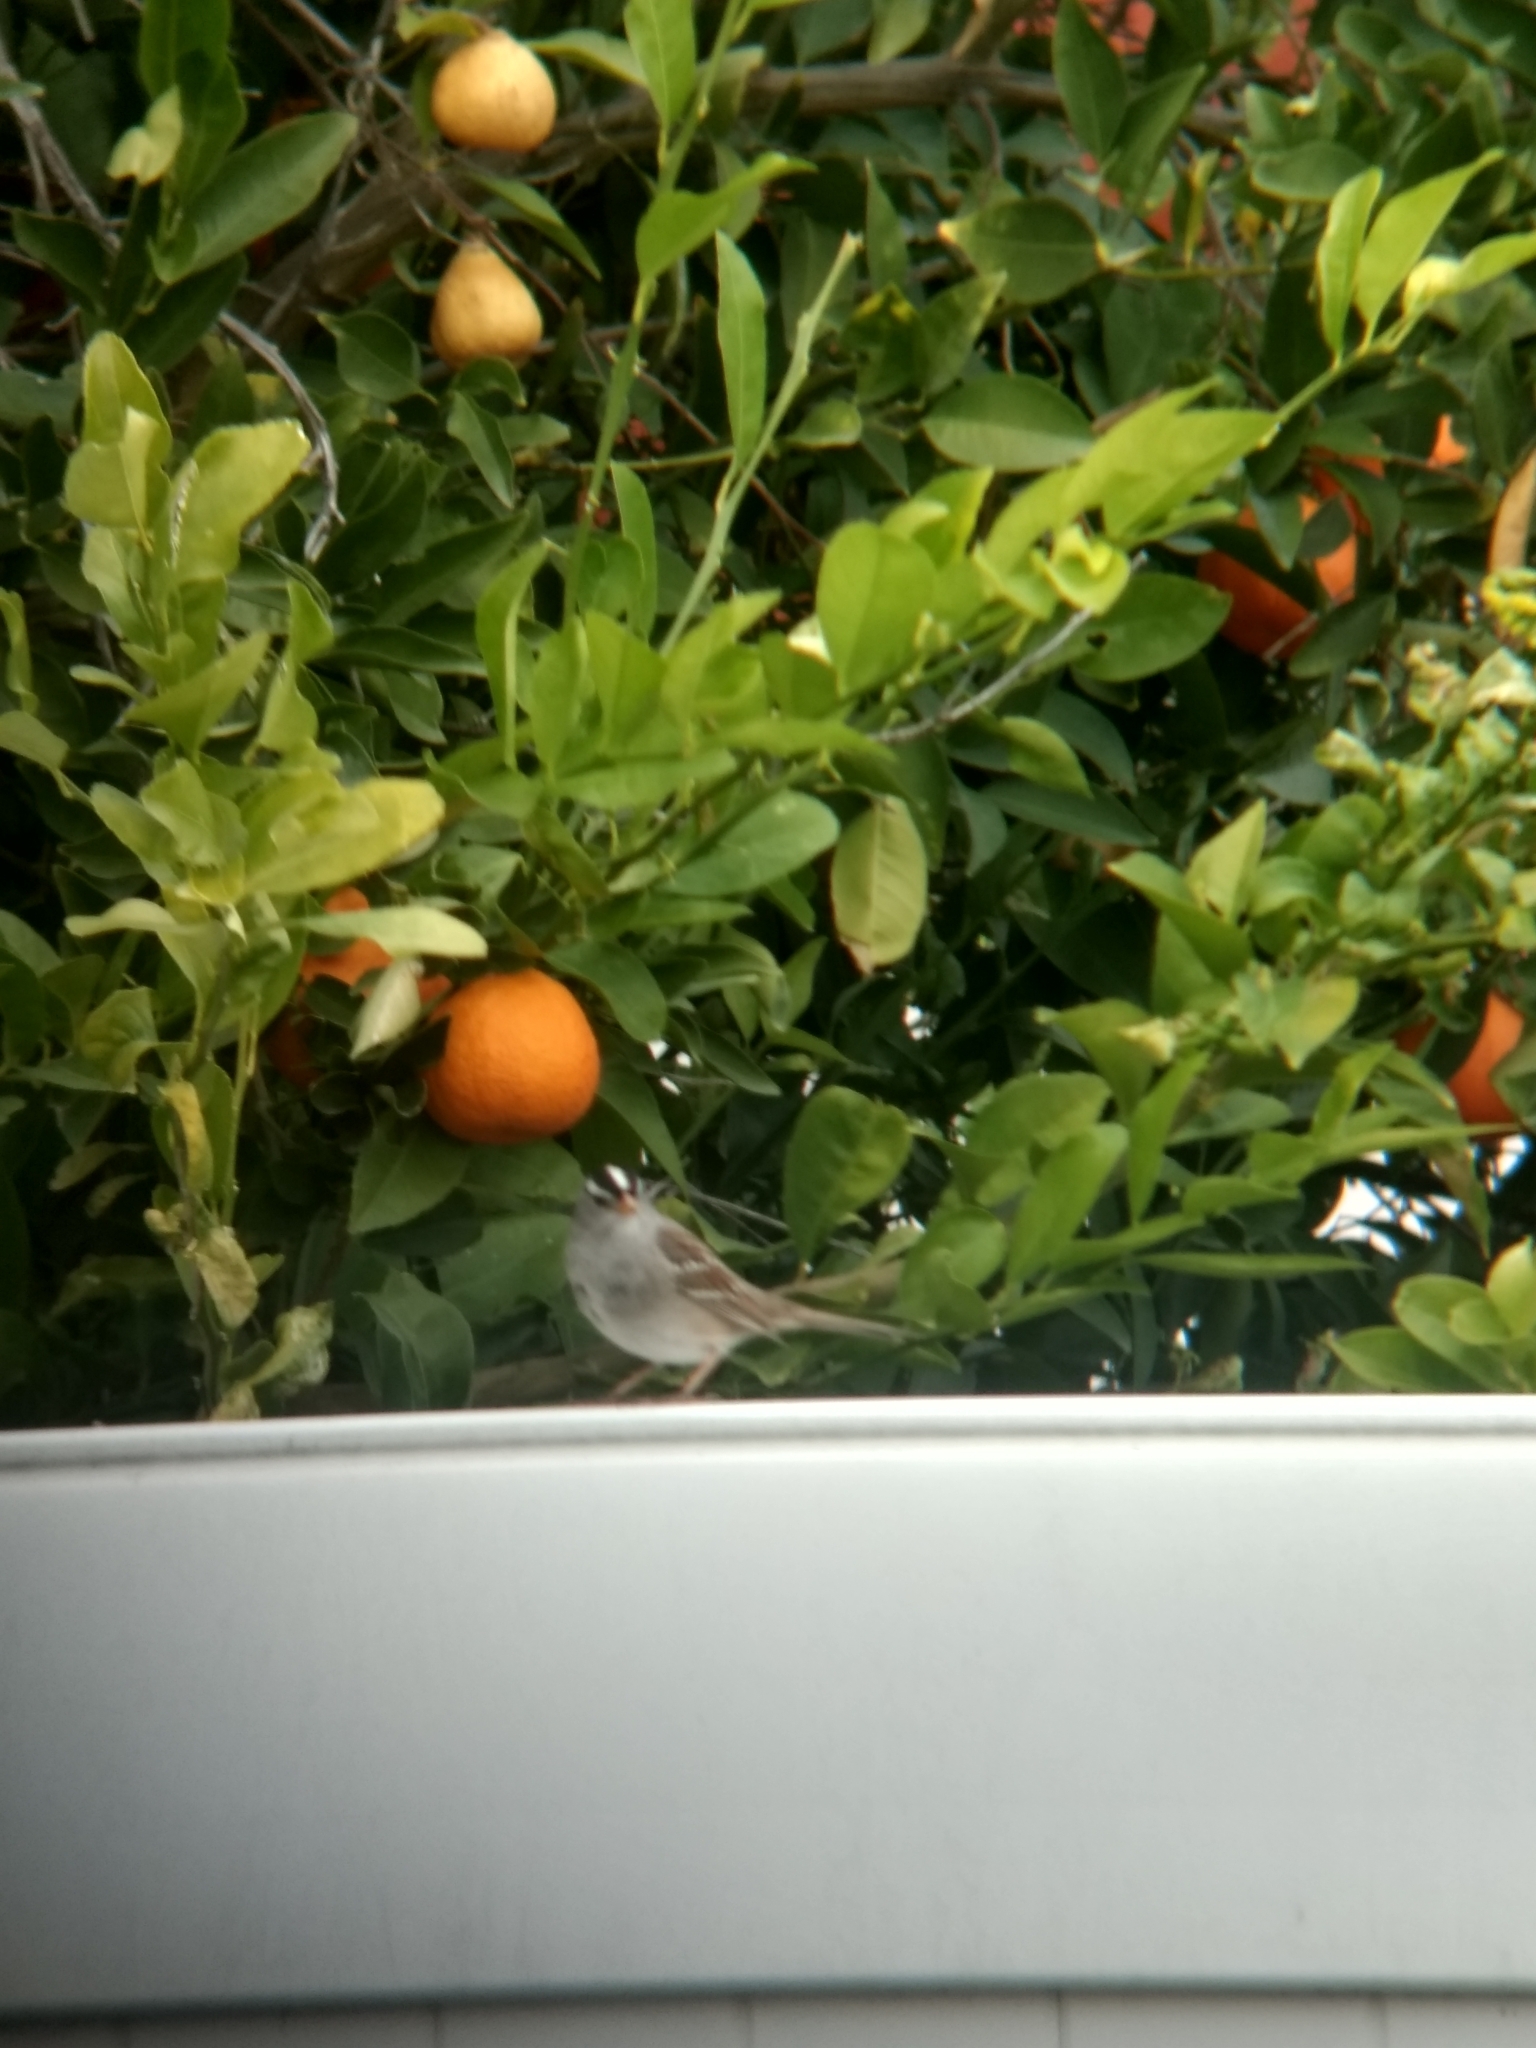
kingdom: Animalia
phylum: Chordata
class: Aves
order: Passeriformes
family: Passerellidae
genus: Zonotrichia
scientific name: Zonotrichia leucophrys
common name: White-crowned sparrow
